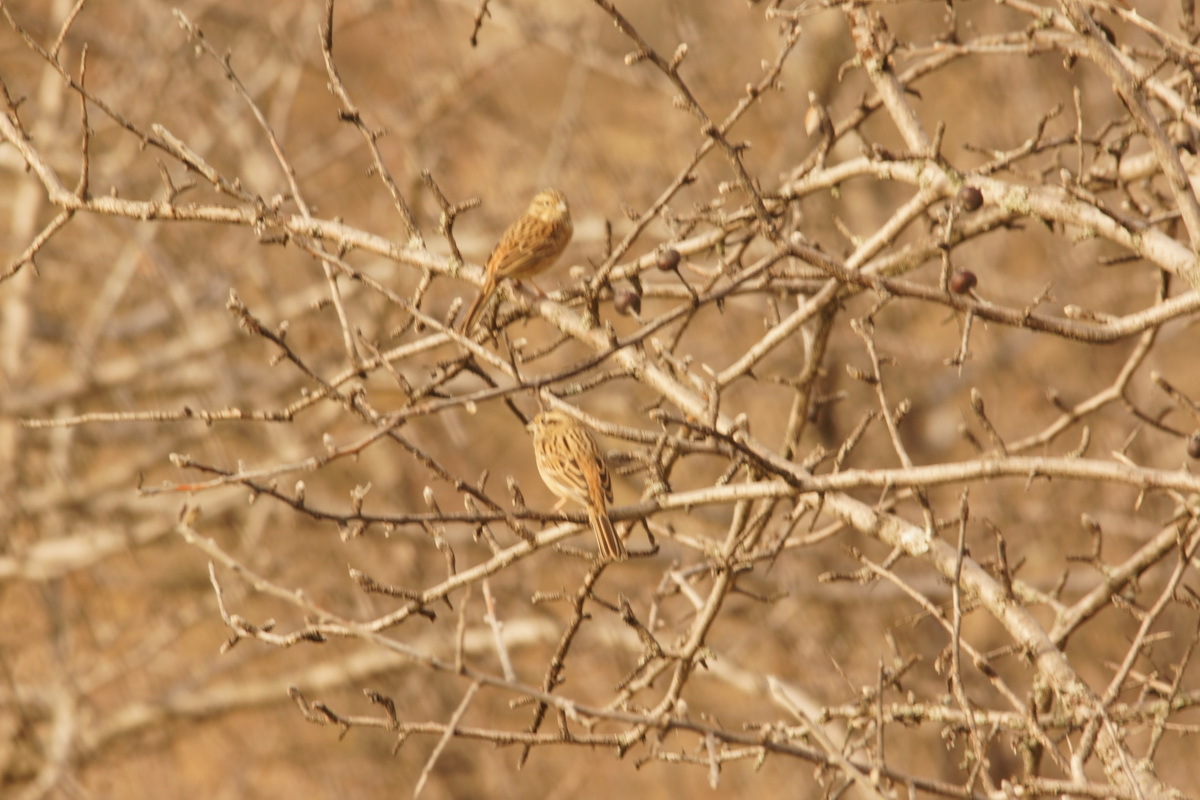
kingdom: Animalia
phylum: Chordata
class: Aves
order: Passeriformes
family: Emberizidae
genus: Emberiza
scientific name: Emberiza cia
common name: Rock bunting
